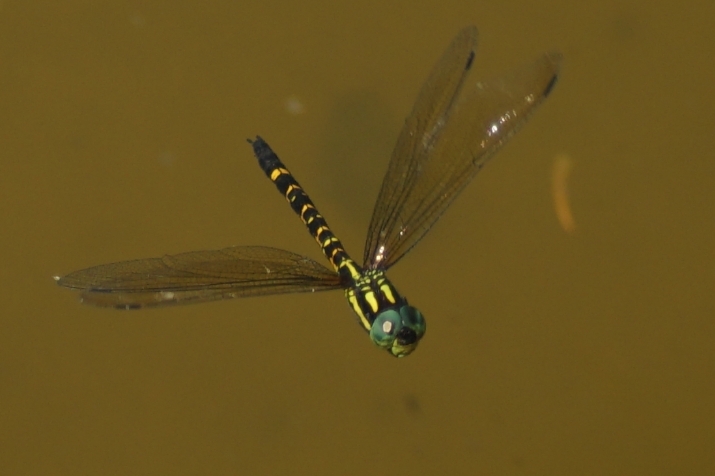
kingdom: Animalia
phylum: Arthropoda
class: Insecta
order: Odonata
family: Aeshnidae
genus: Indaeschna
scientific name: Indaeschna
